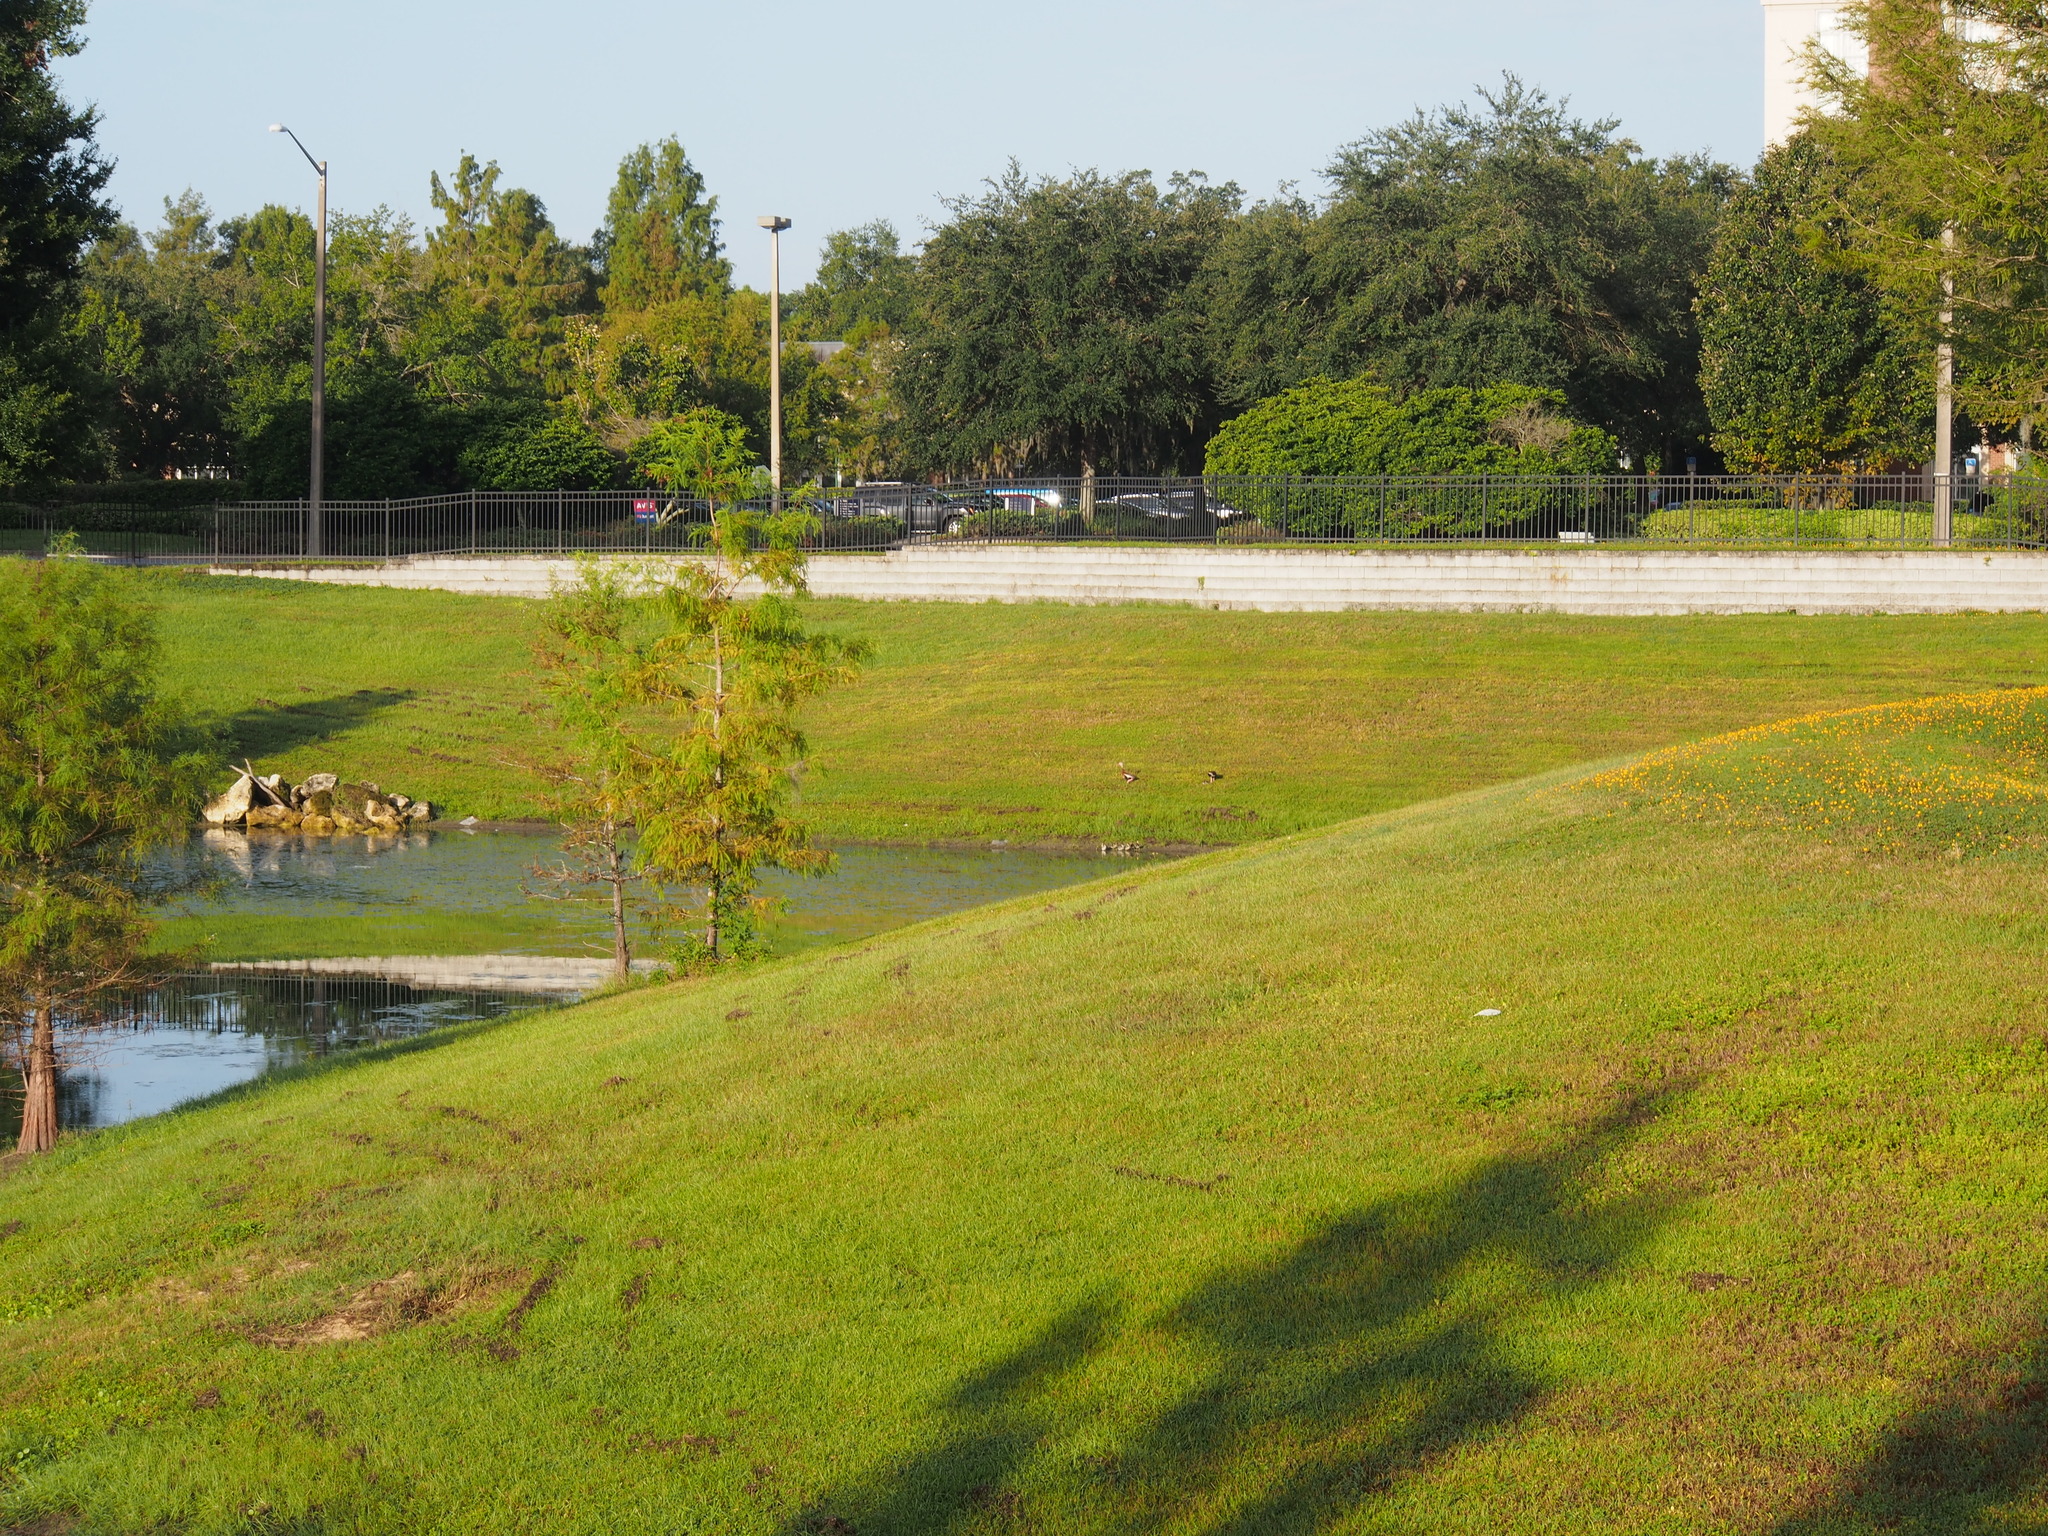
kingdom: Animalia
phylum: Chordata
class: Aves
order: Anseriformes
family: Anatidae
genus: Dendrocygna
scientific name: Dendrocygna autumnalis
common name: Black-bellied whistling duck
